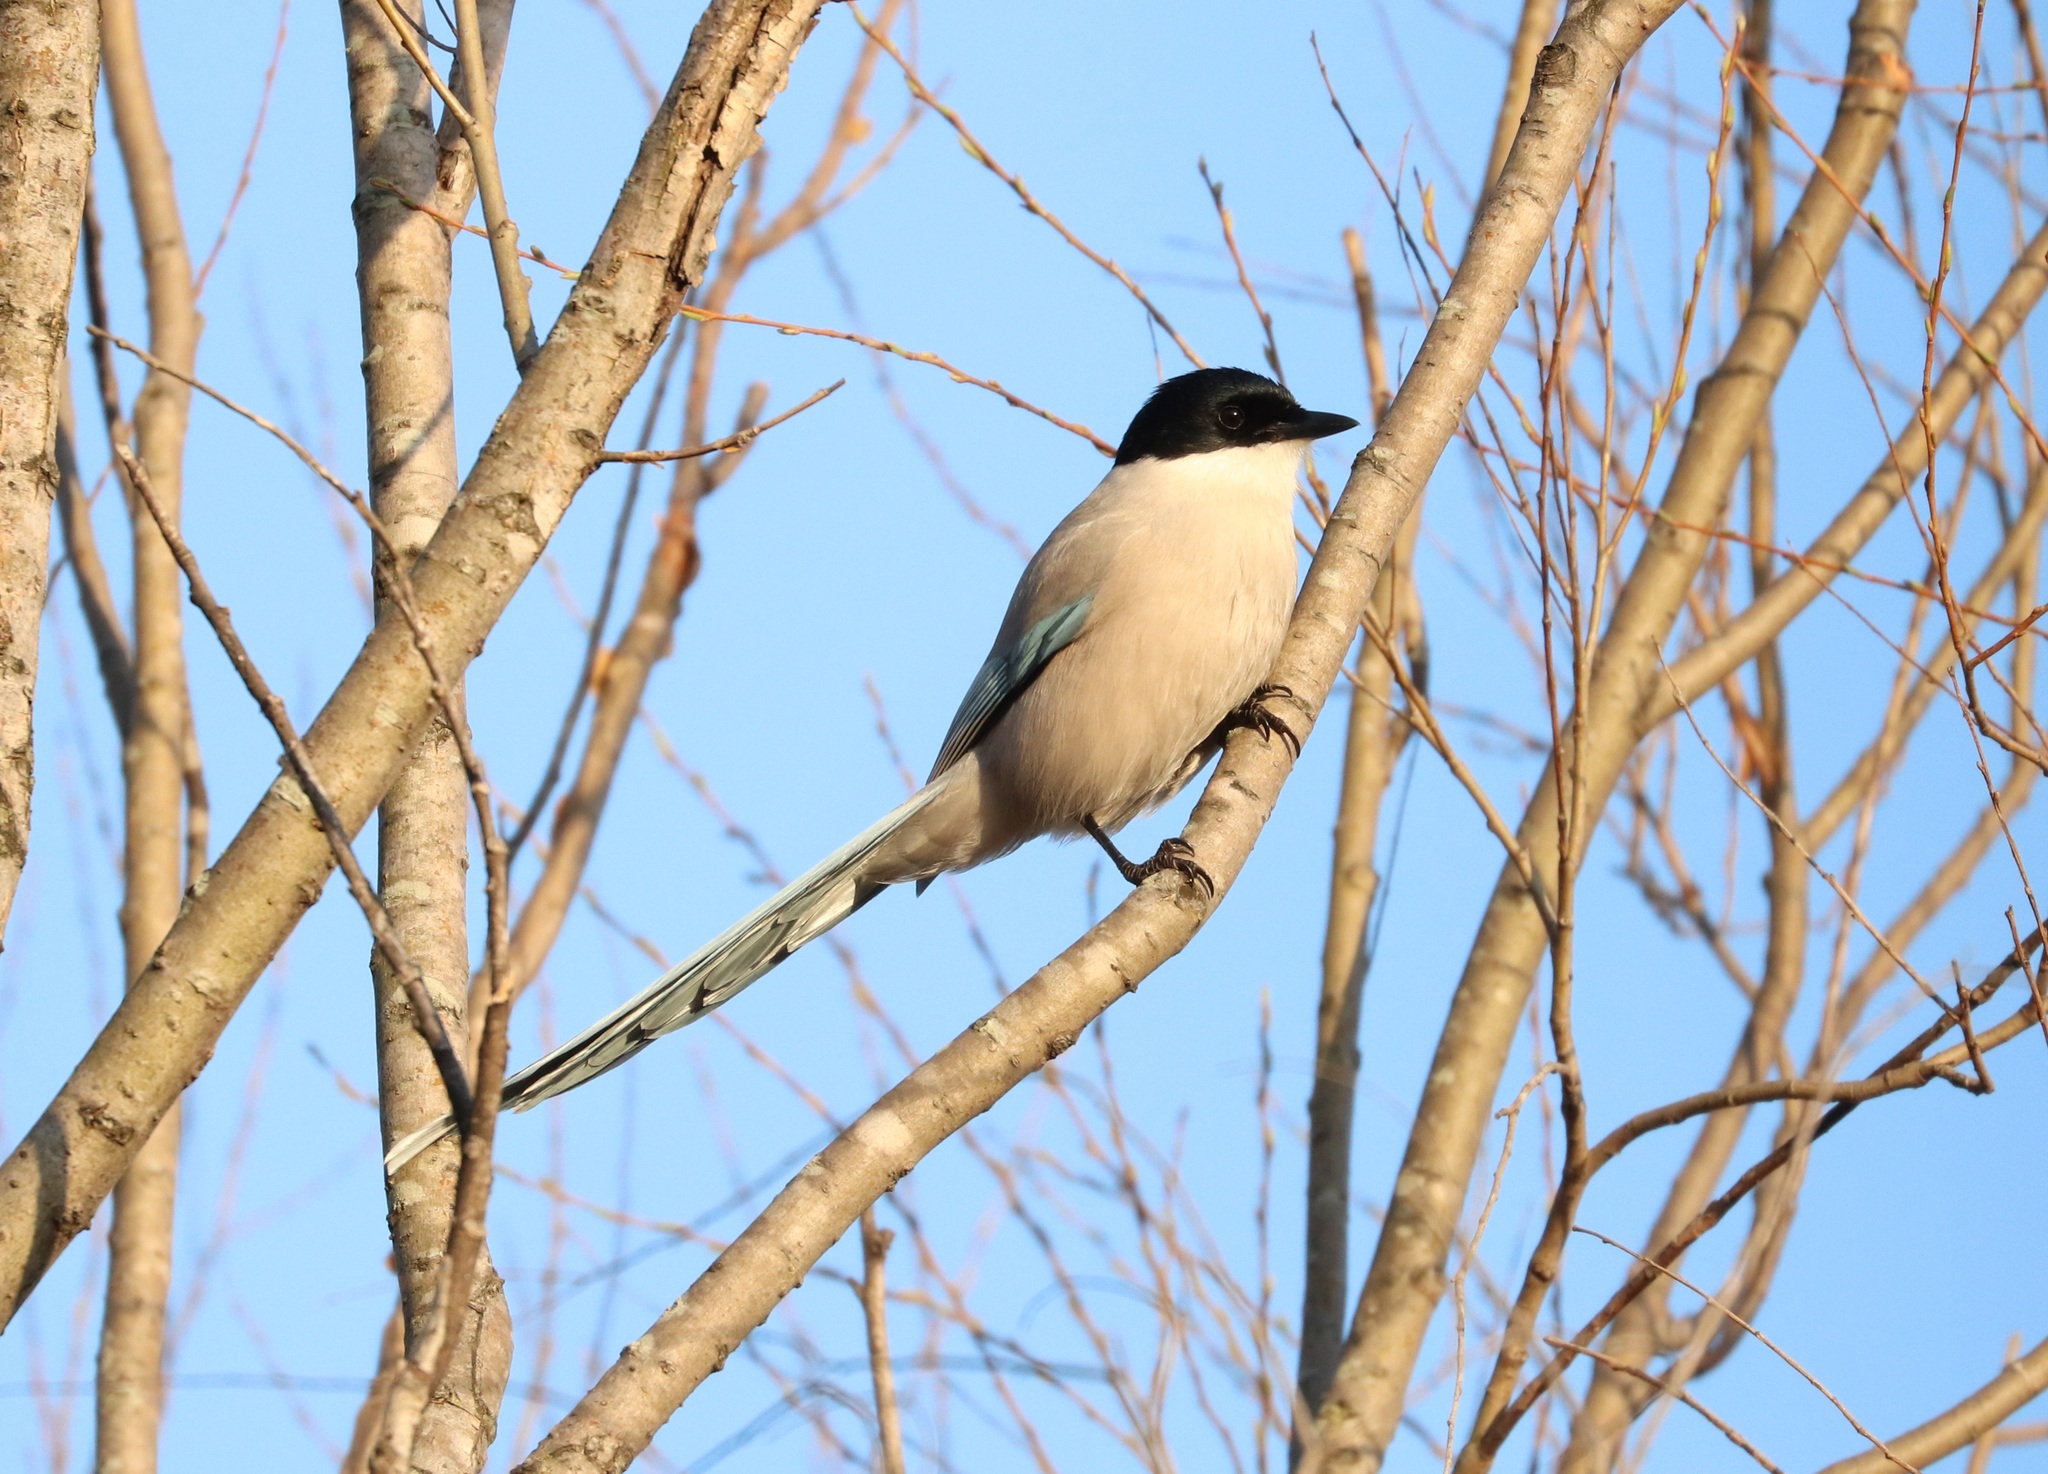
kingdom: Animalia
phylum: Chordata
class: Aves
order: Passeriformes
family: Corvidae
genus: Cyanopica
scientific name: Cyanopica cyanus
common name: Azure-winged magpie
